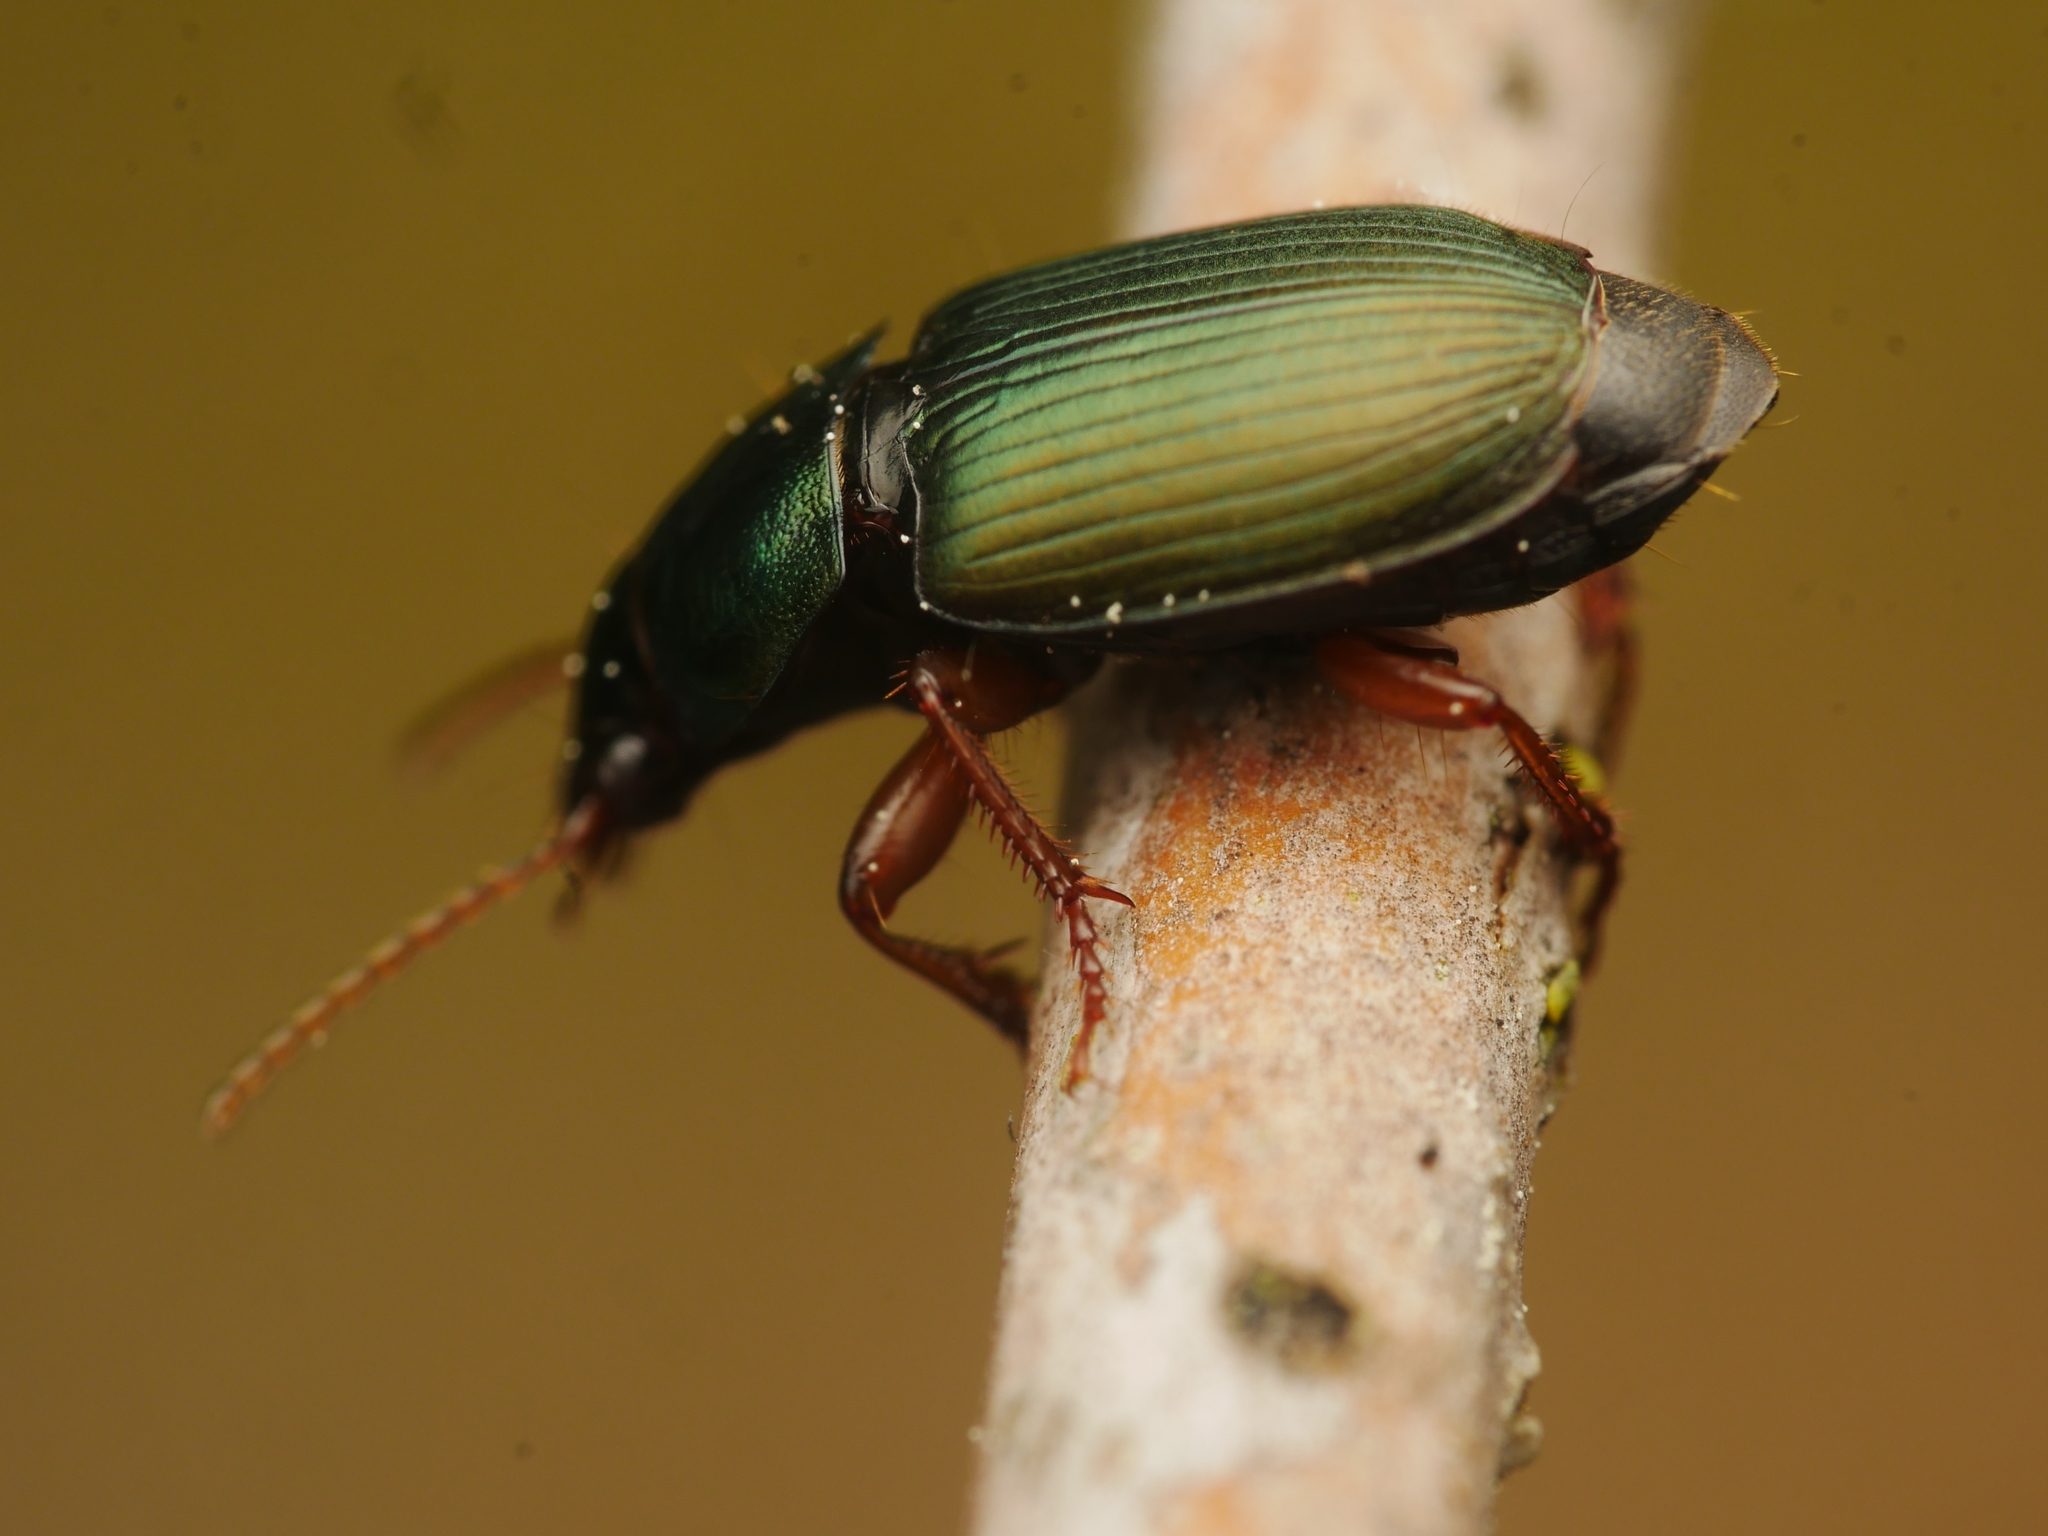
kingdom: Animalia
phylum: Arthropoda
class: Insecta
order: Coleoptera
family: Carabidae
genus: Harpalus
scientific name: Harpalus affinis
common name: Polychrome harp ground beetle
